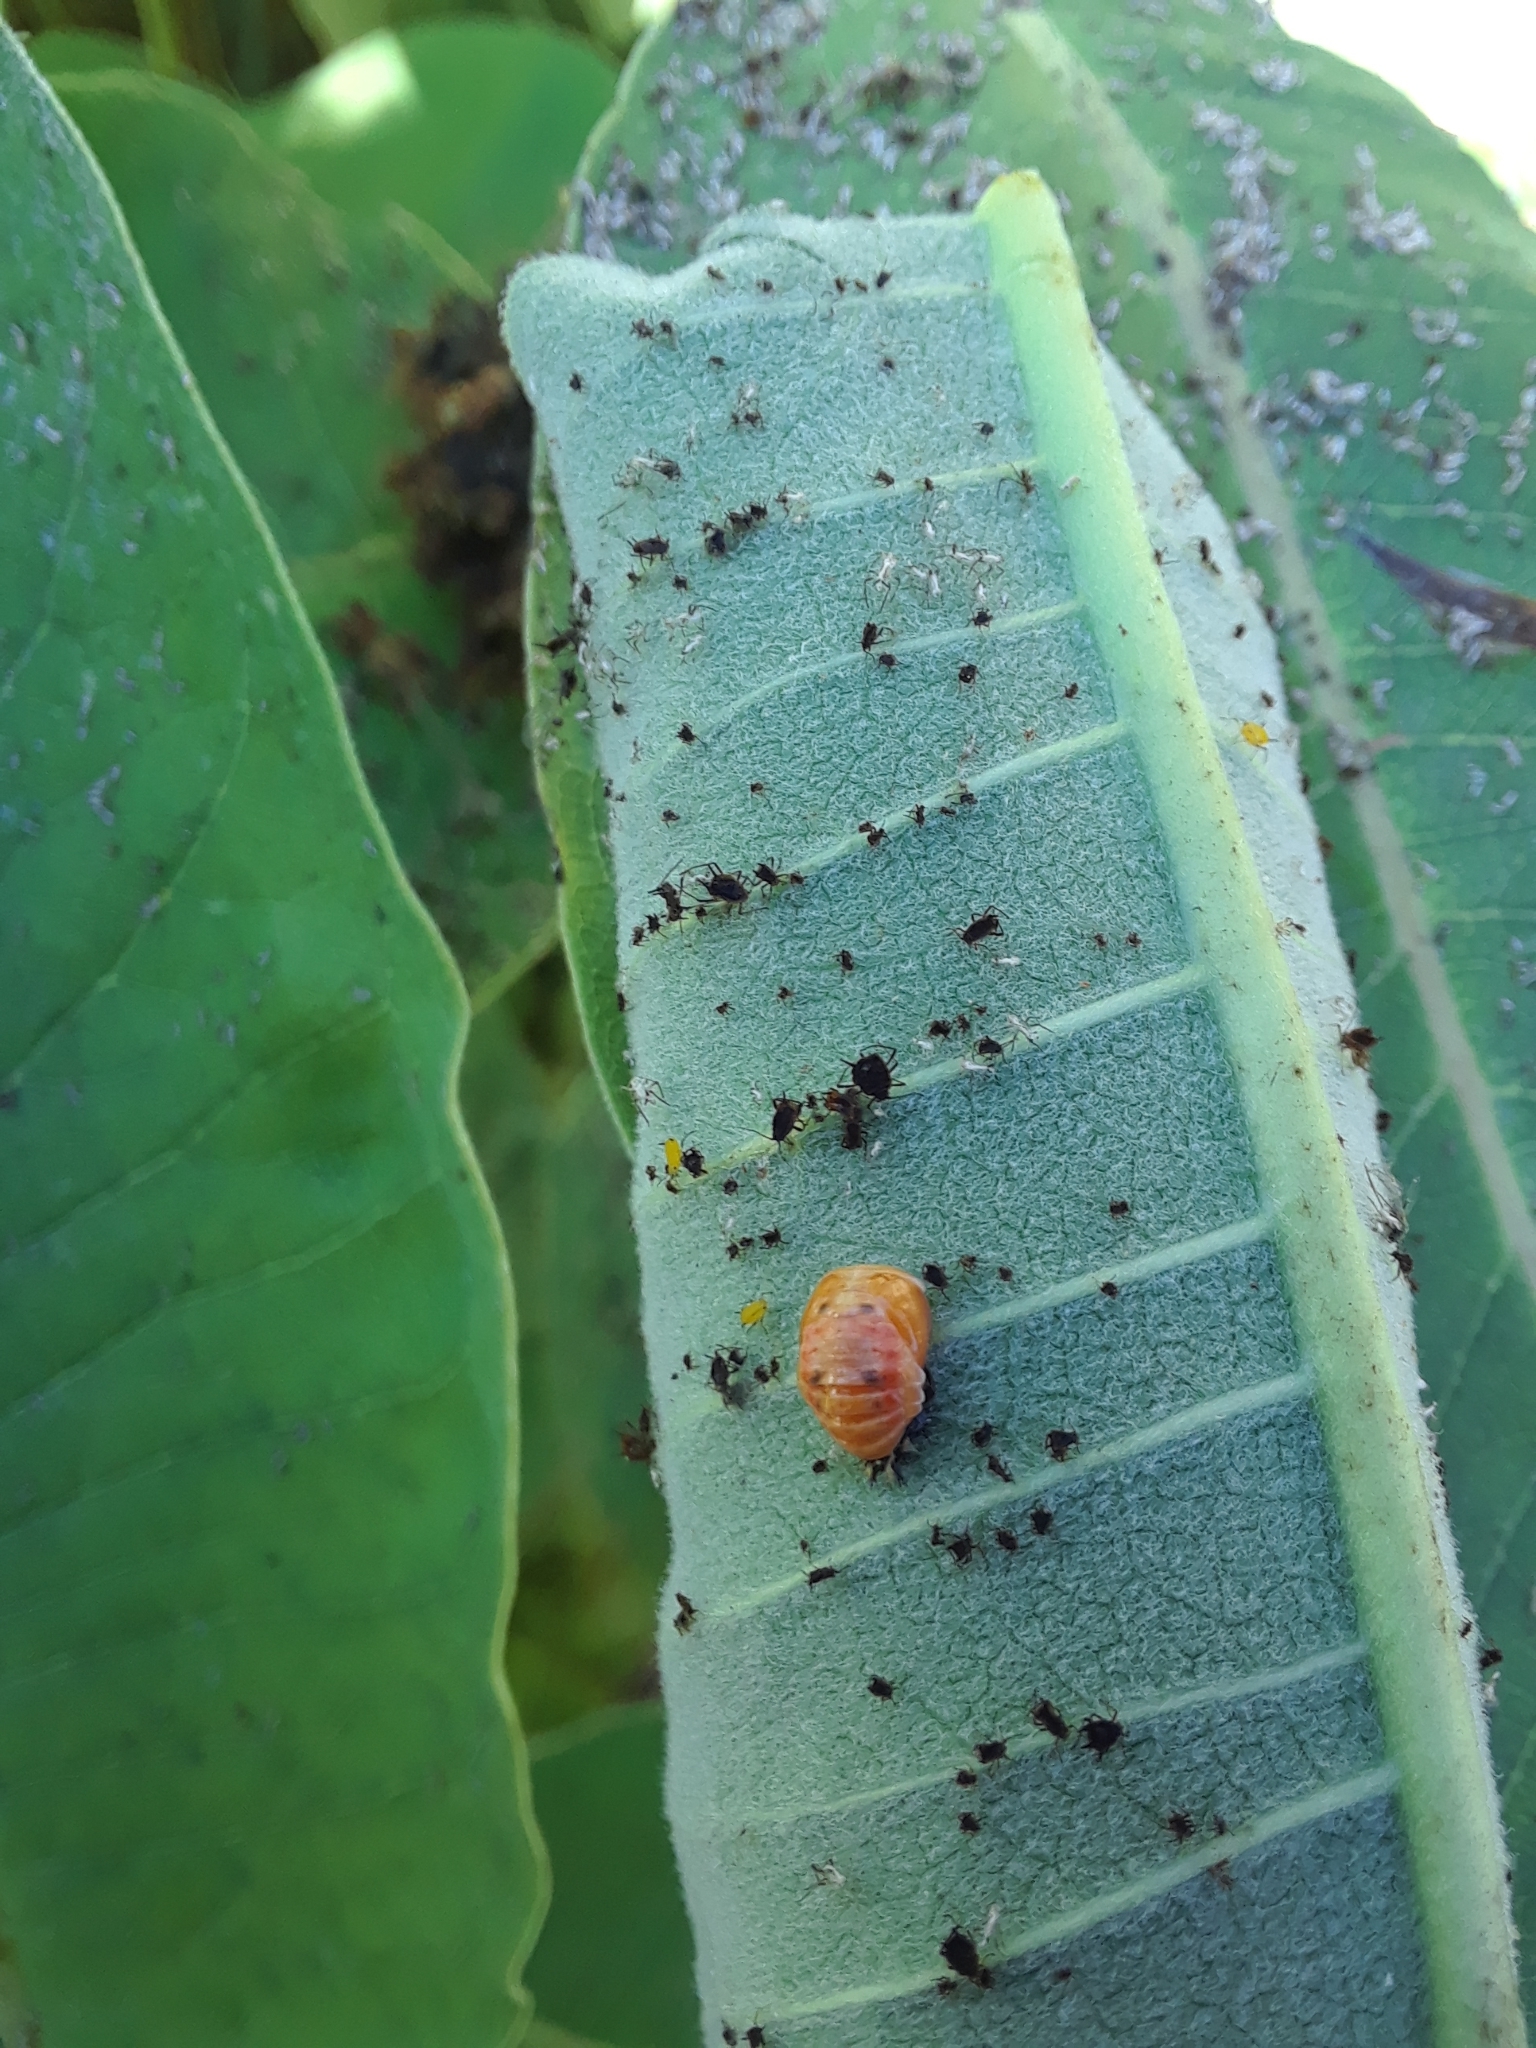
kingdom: Animalia
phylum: Arthropoda
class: Insecta
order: Coleoptera
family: Coccinellidae
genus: Harmonia
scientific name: Harmonia axyridis
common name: Harlequin ladybird
